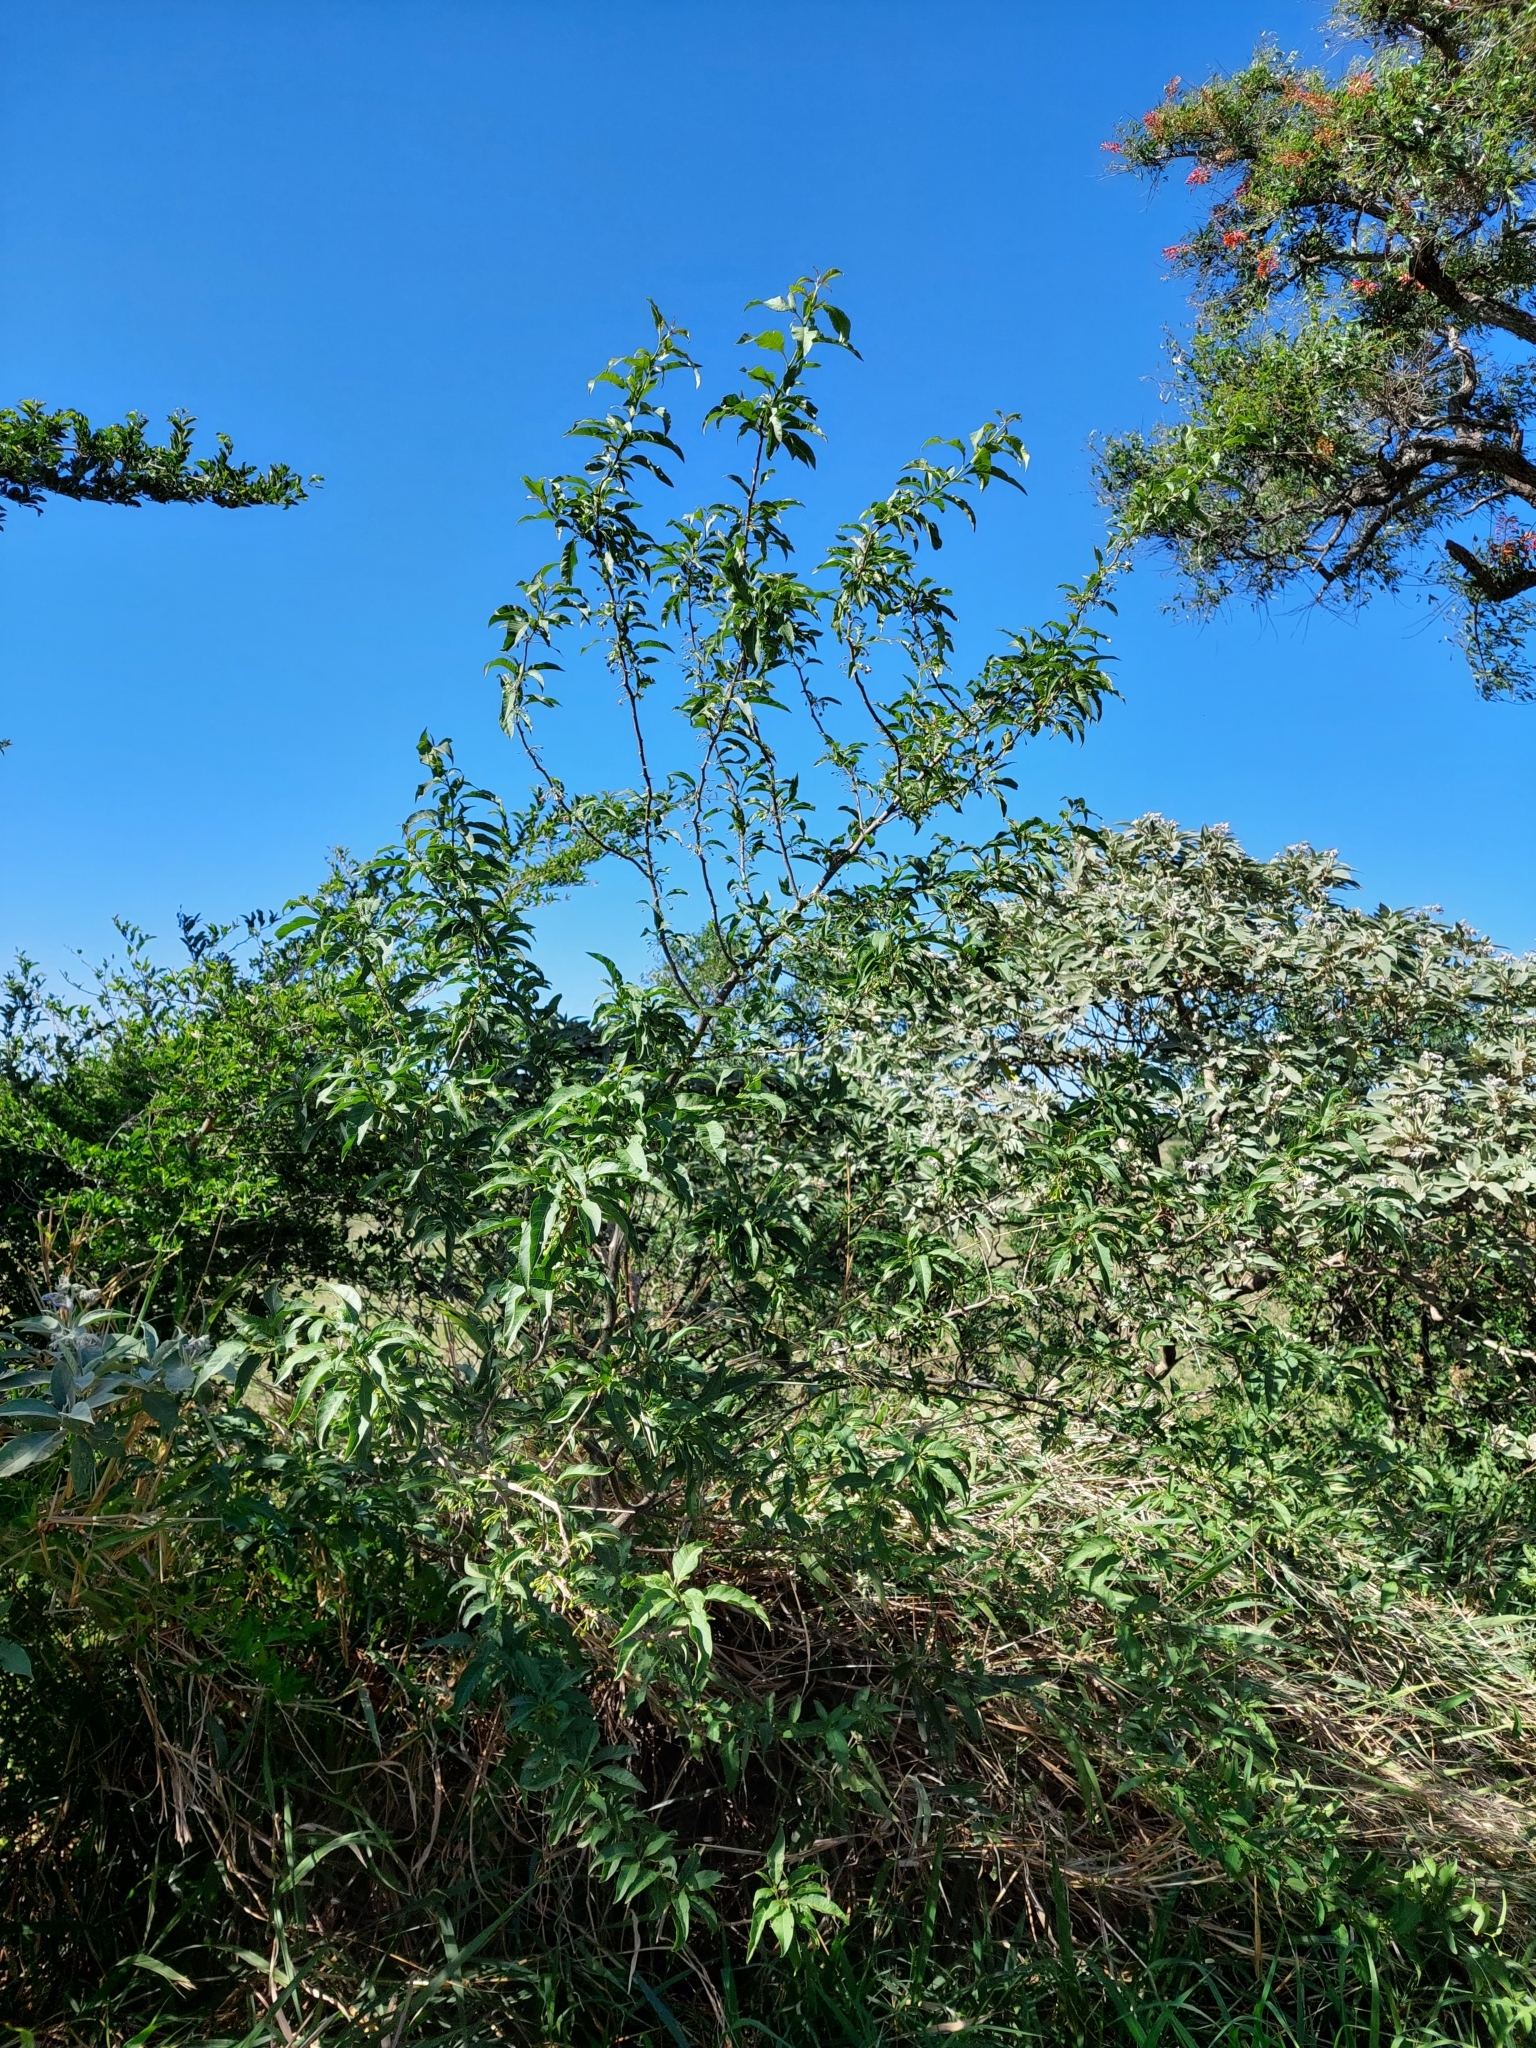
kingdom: Plantae
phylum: Tracheophyta
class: Magnoliopsida
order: Solanales
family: Solanaceae
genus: Vassobia
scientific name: Vassobia breviflora
